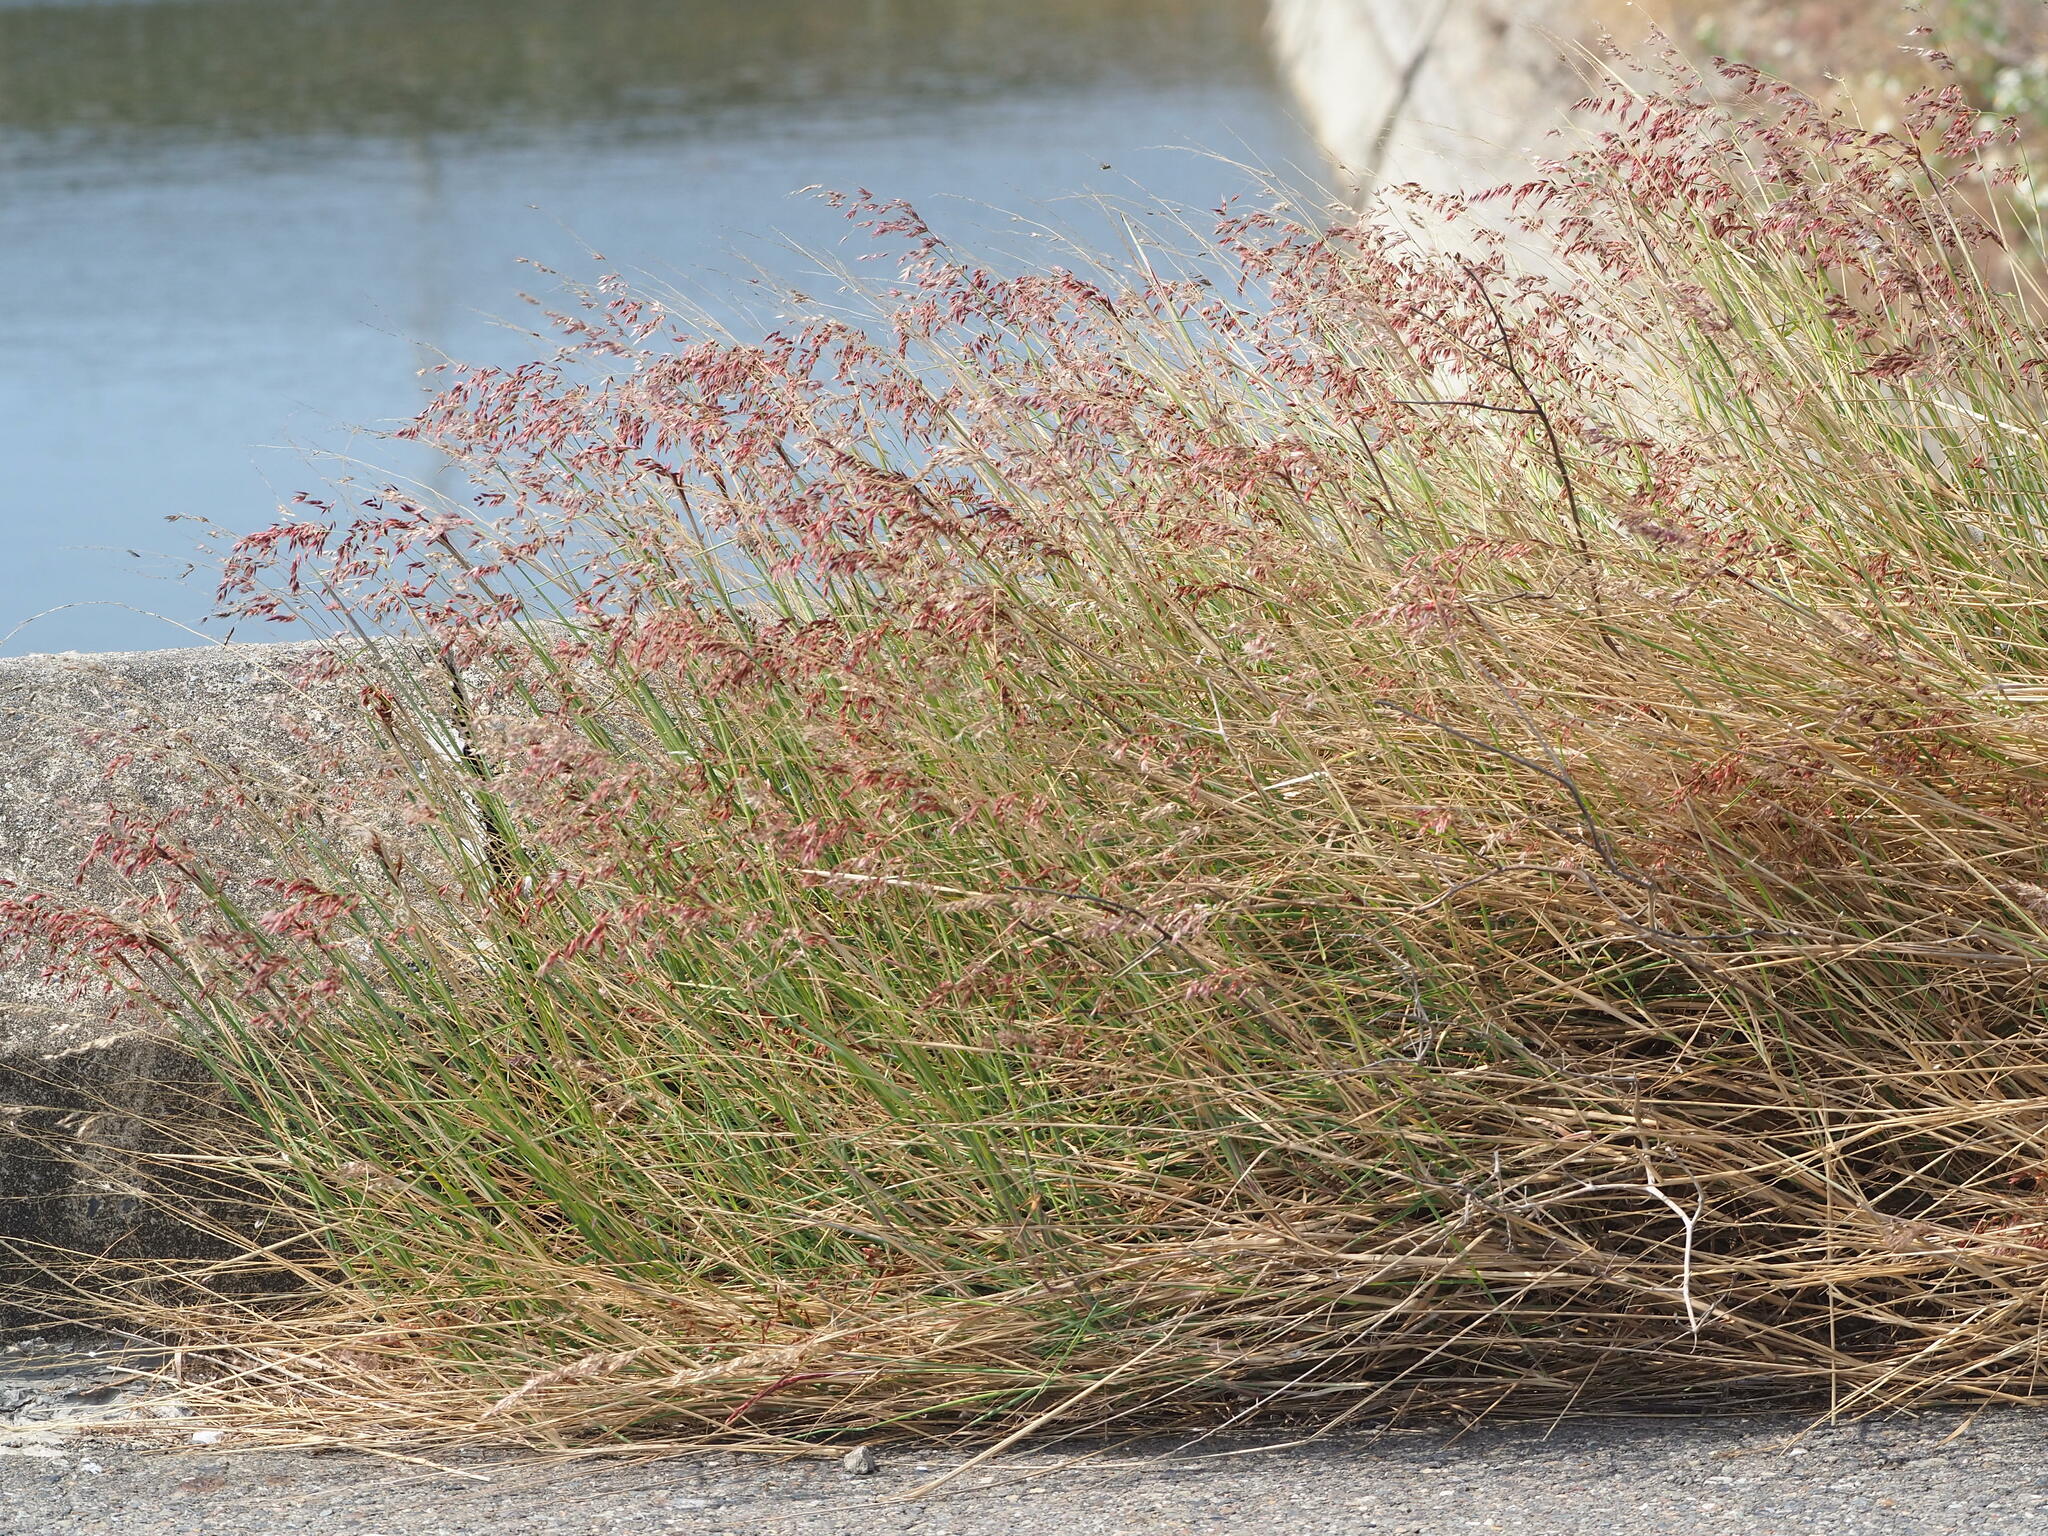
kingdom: Plantae
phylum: Tracheophyta
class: Liliopsida
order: Poales
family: Poaceae
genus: Melinis
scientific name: Melinis repens
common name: Rose natal grass
